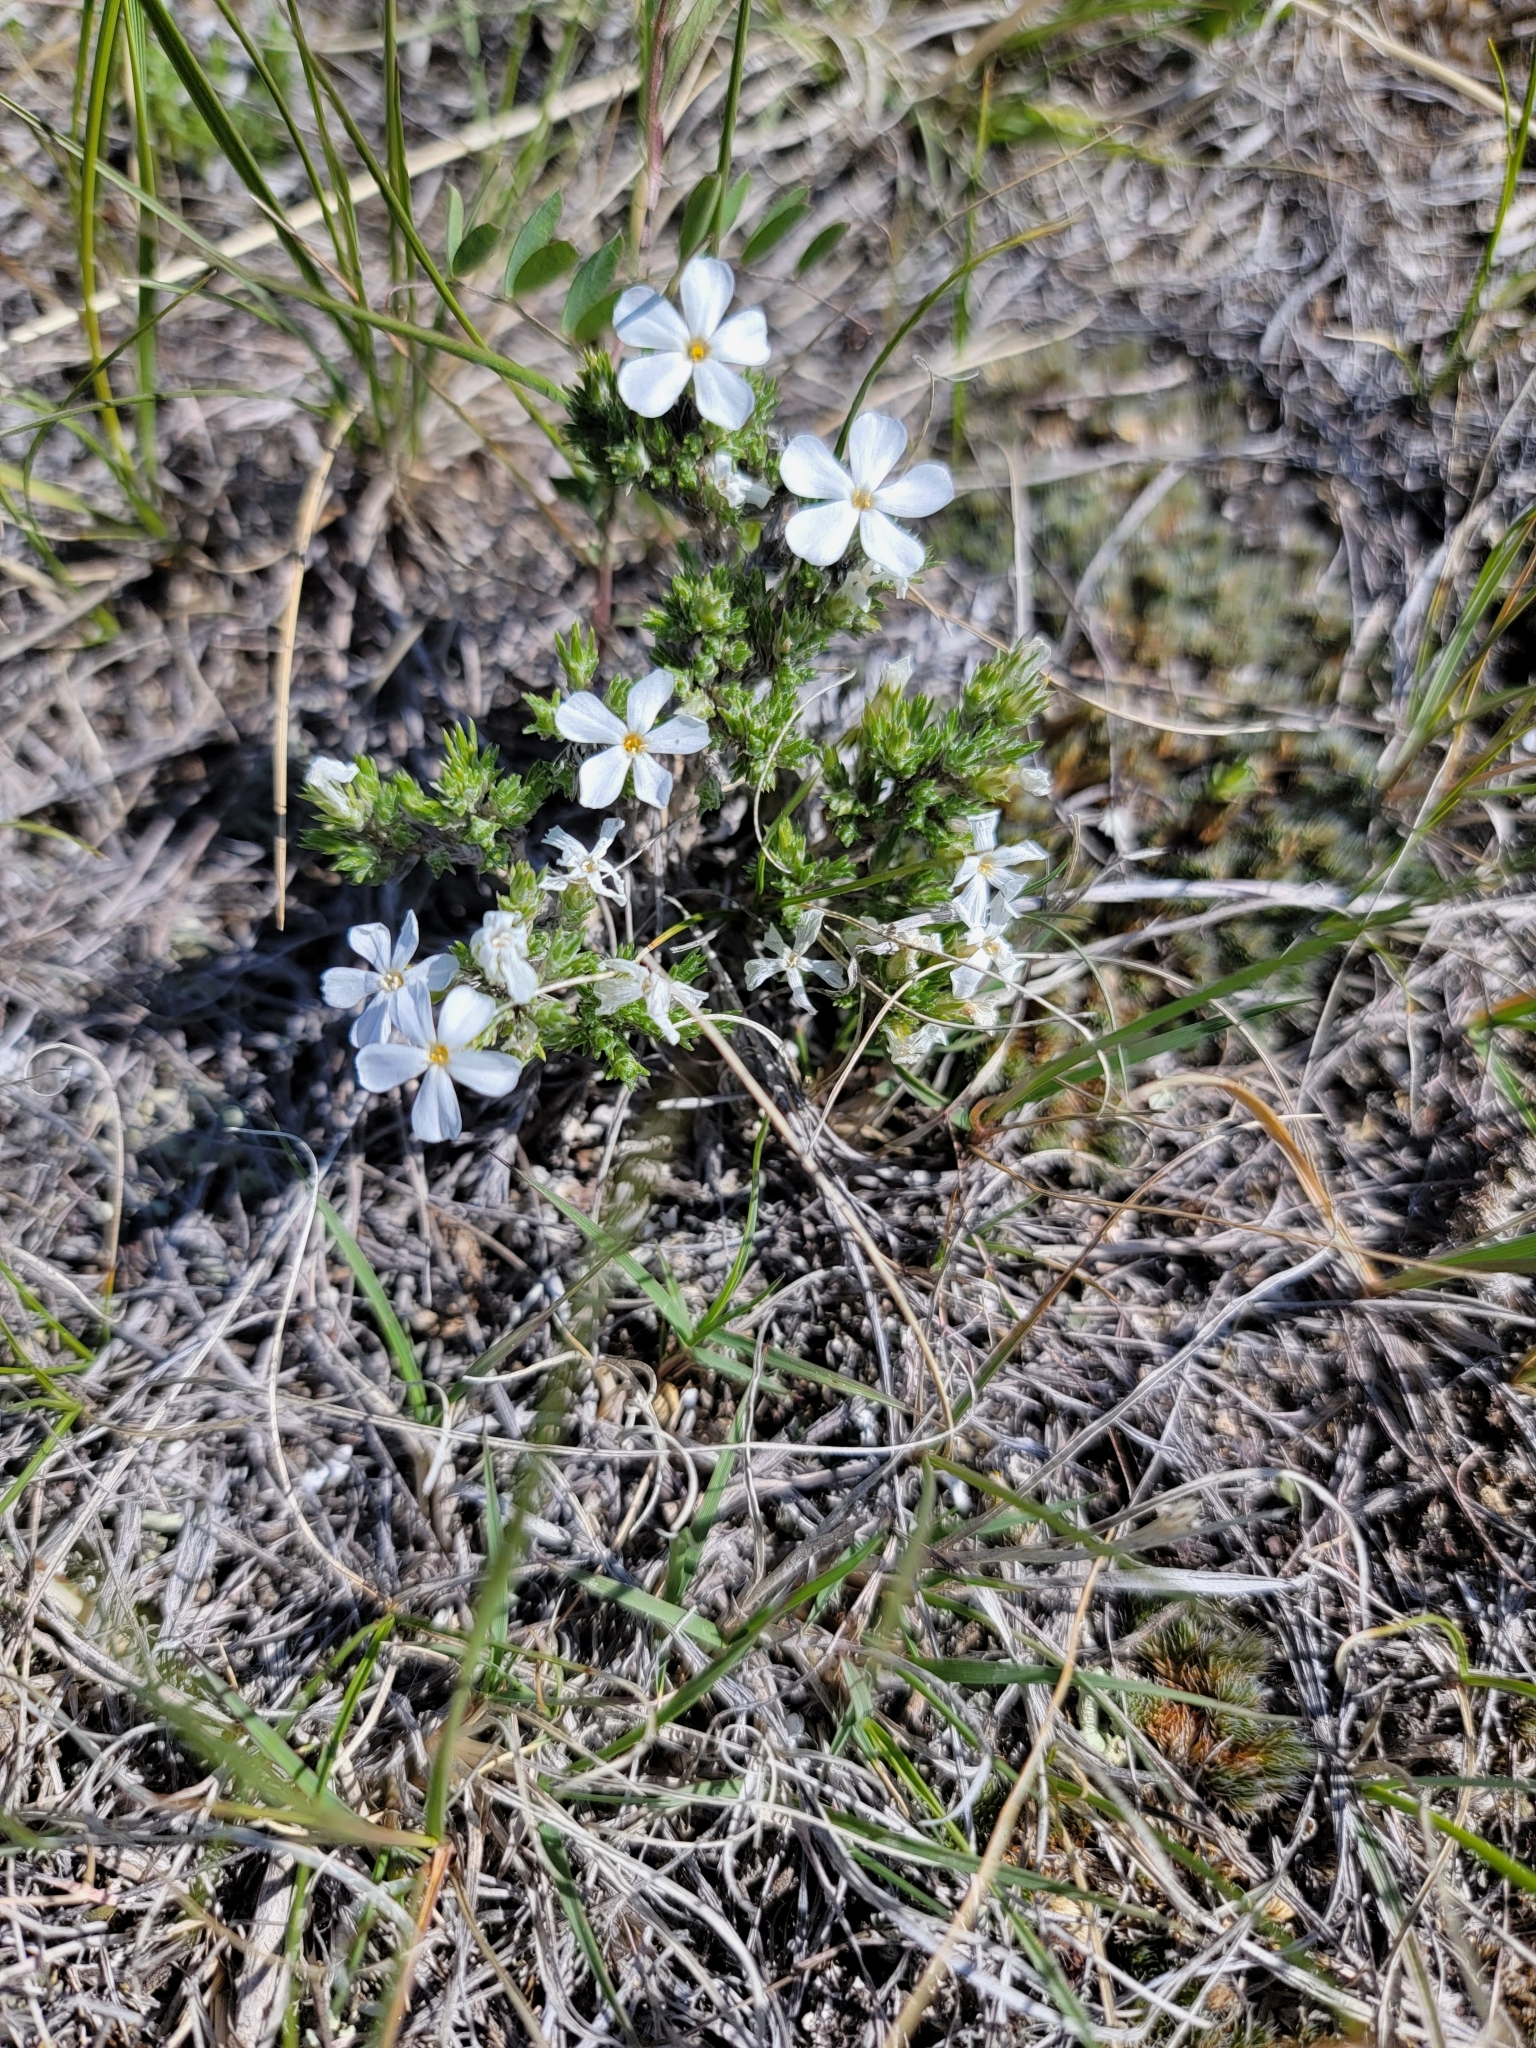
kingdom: Plantae
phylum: Tracheophyta
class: Magnoliopsida
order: Ericales
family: Polemoniaceae
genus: Phlox
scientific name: Phlox hoodii
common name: Moss phlox
